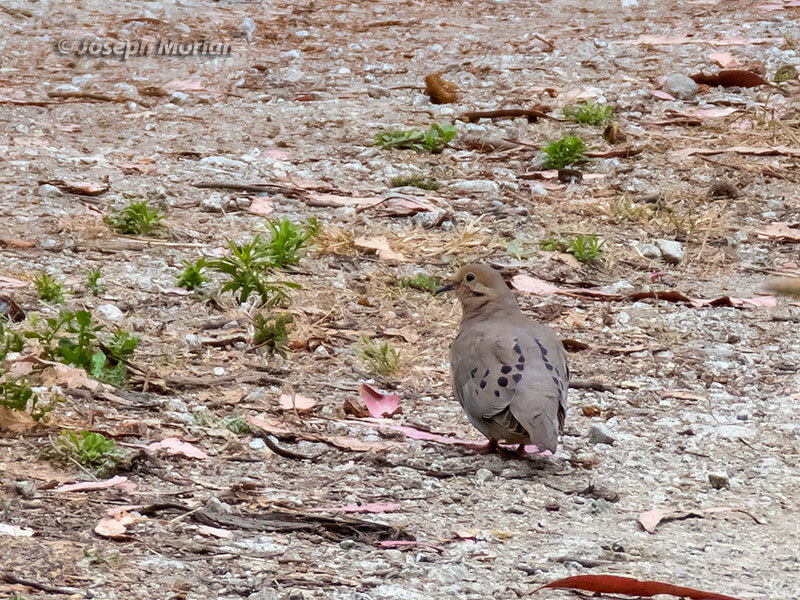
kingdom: Animalia
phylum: Chordata
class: Aves
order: Columbiformes
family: Columbidae
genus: Zenaida
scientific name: Zenaida macroura
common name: Mourning dove
